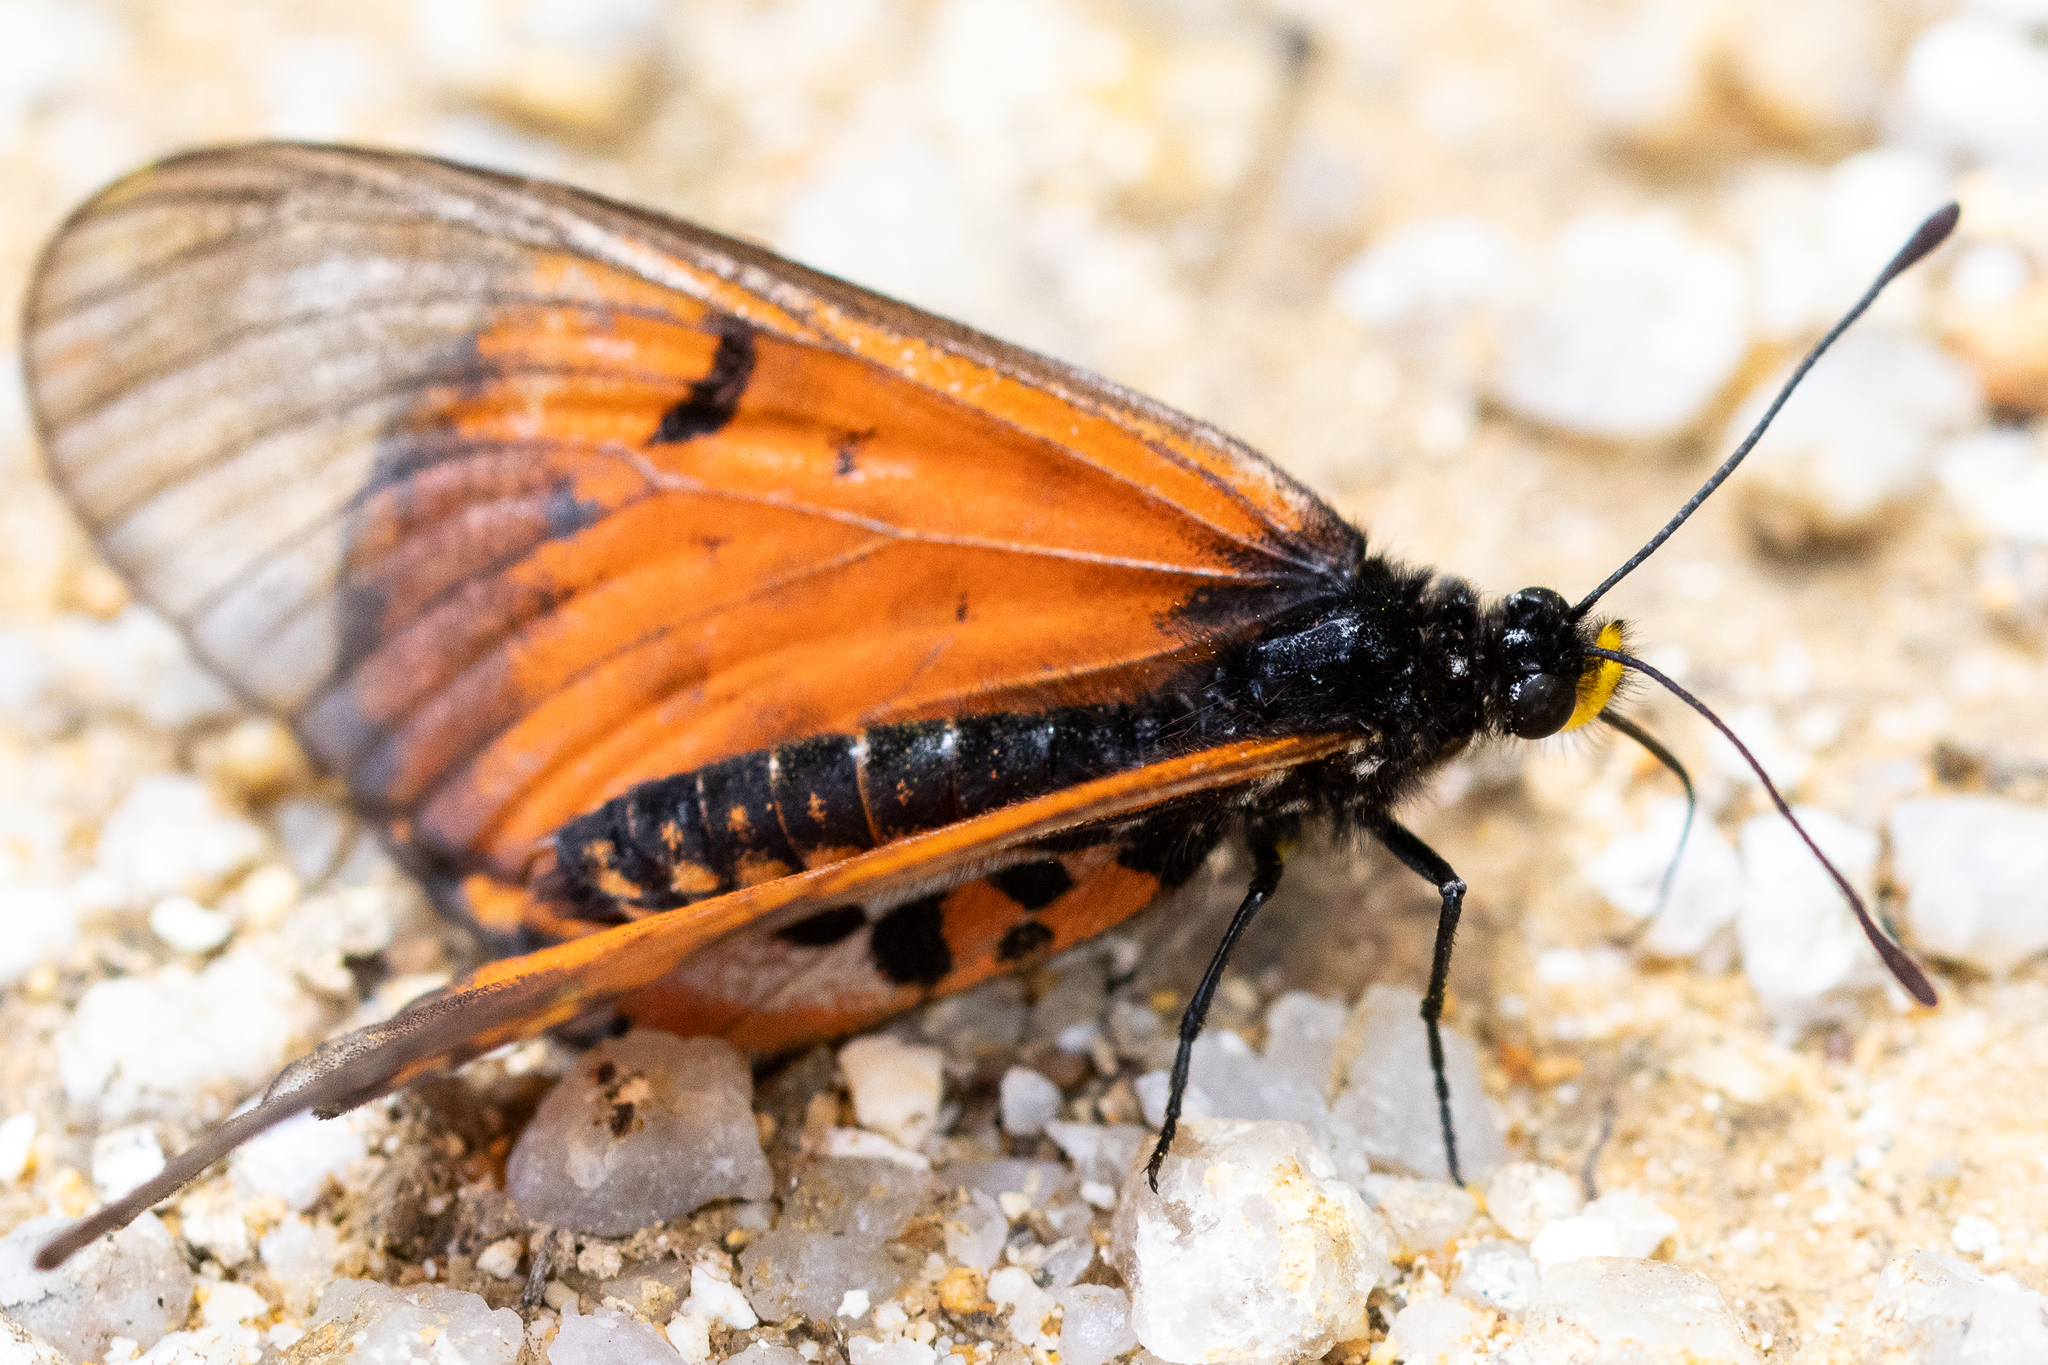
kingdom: Animalia
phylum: Arthropoda
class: Insecta
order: Lepidoptera
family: Nymphalidae
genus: Acraea
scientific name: Acraea horta
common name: Garden acraea
